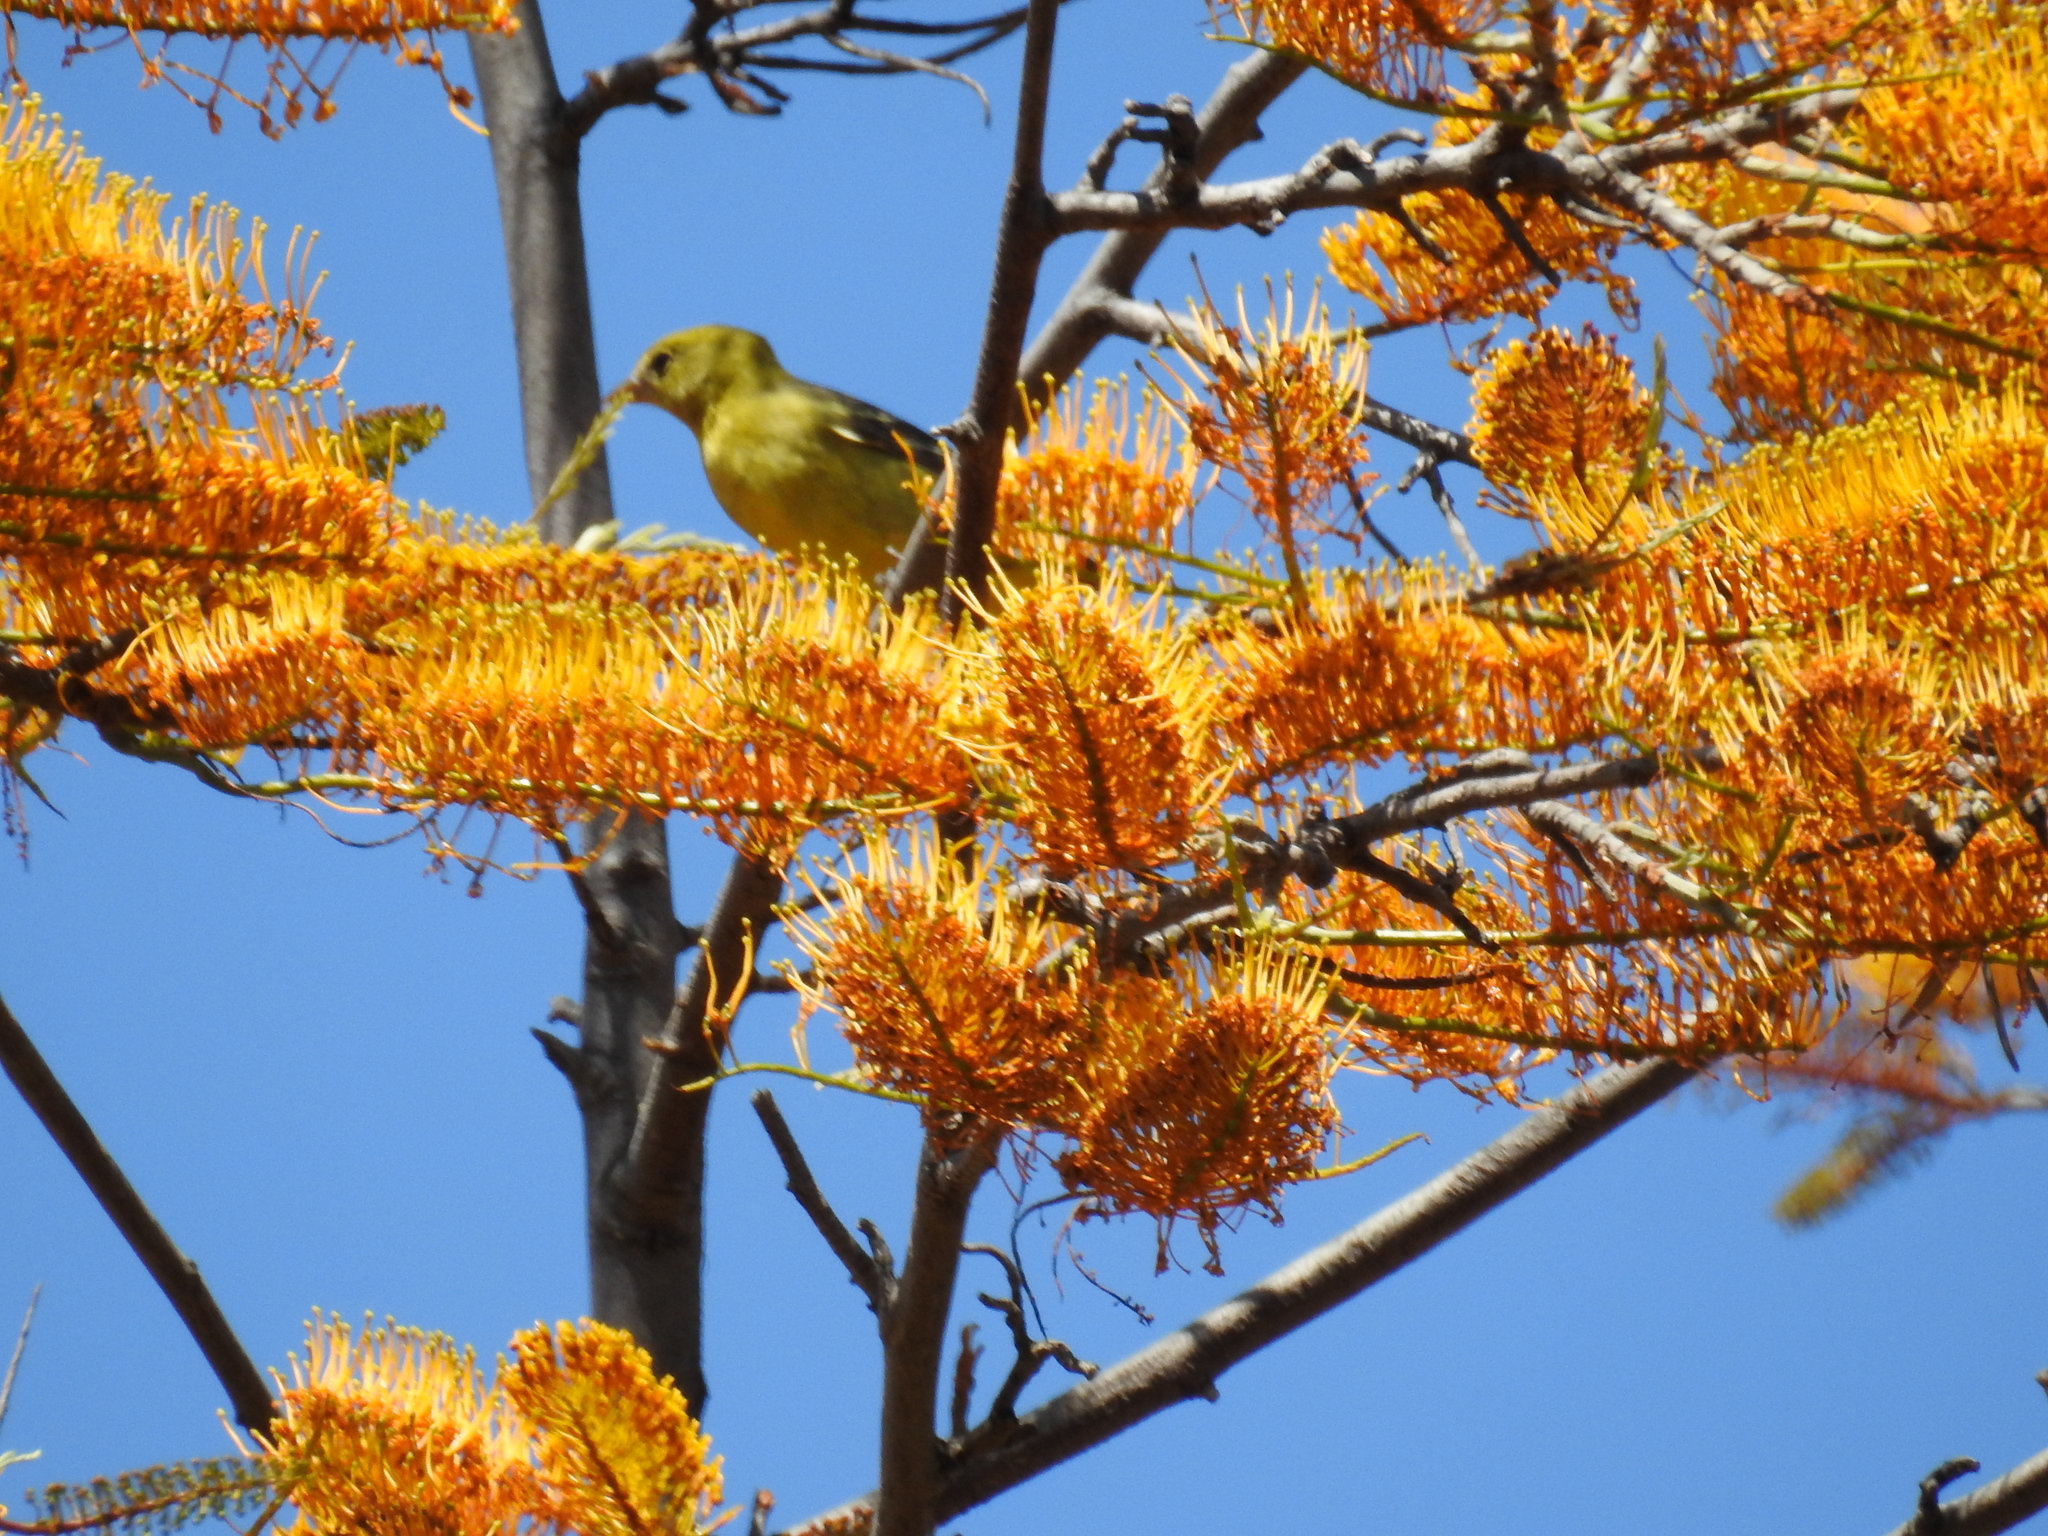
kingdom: Animalia
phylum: Chordata
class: Aves
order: Passeriformes
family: Cardinalidae
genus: Piranga
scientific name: Piranga ludoviciana
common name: Western tanager
